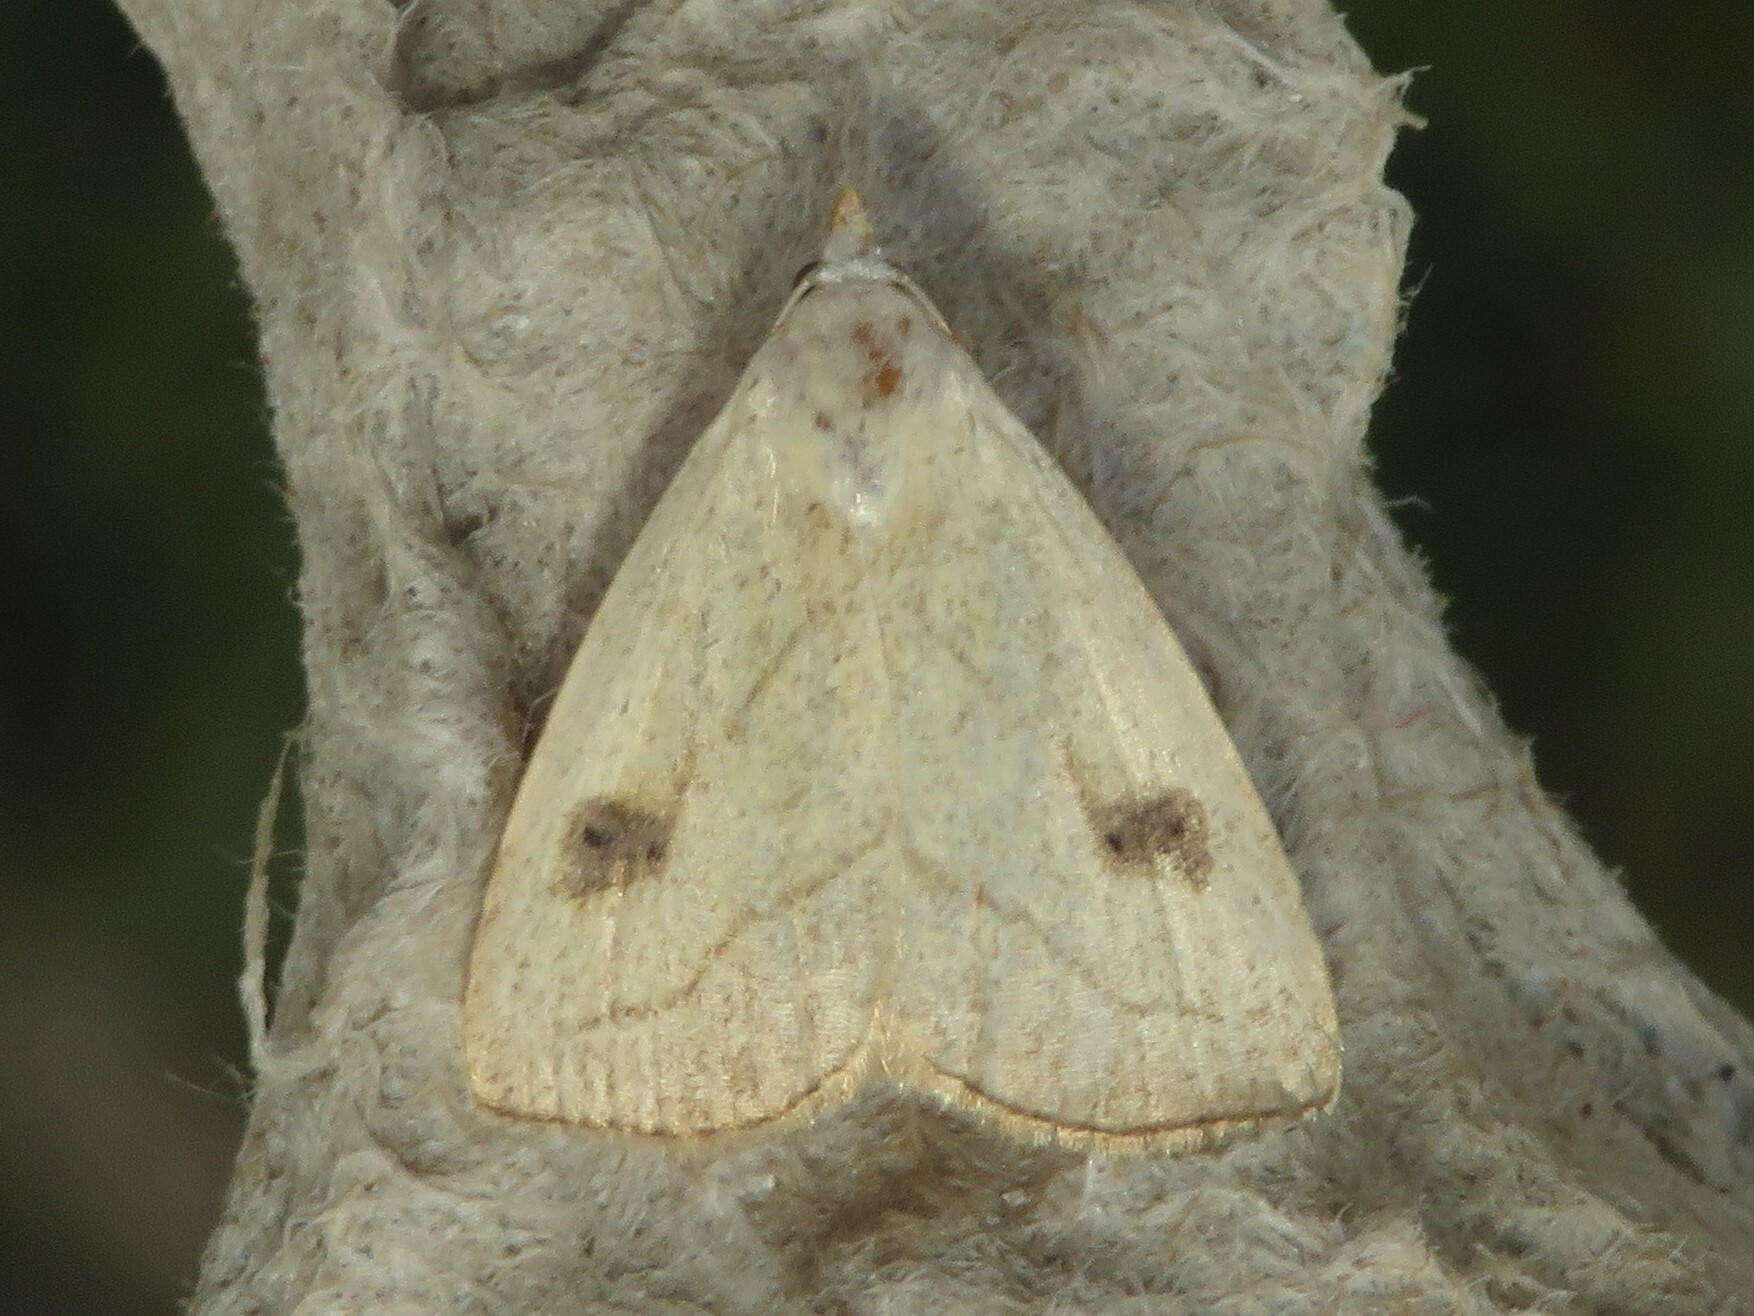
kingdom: Animalia
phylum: Arthropoda
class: Insecta
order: Lepidoptera
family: Erebidae
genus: Rivula
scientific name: Rivula propinqualis
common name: Spotted grass moth
